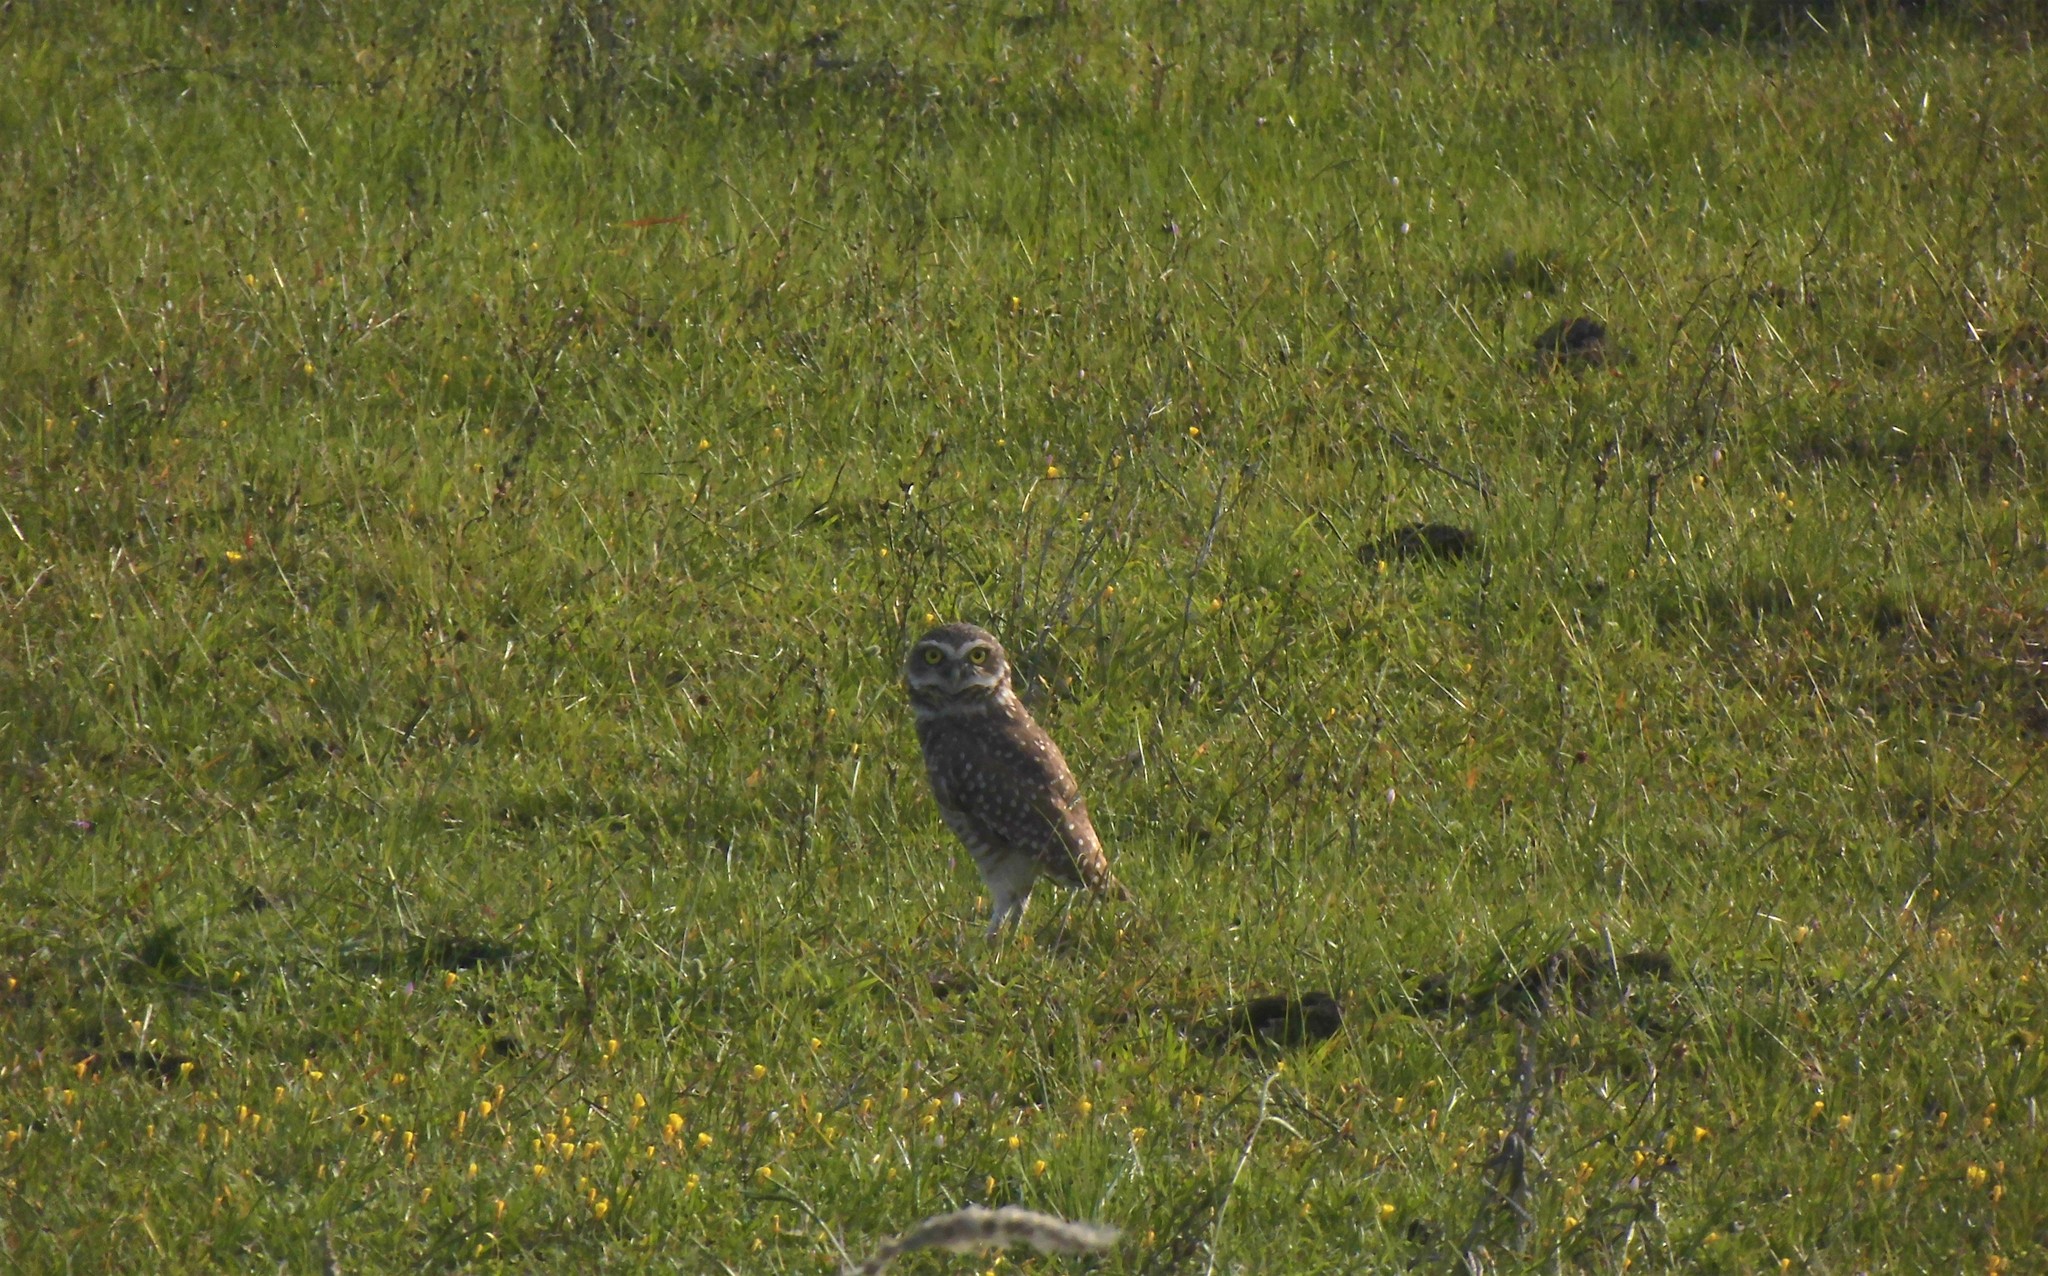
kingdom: Animalia
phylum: Chordata
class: Aves
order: Strigiformes
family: Strigidae
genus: Athene
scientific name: Athene cunicularia
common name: Burrowing owl
